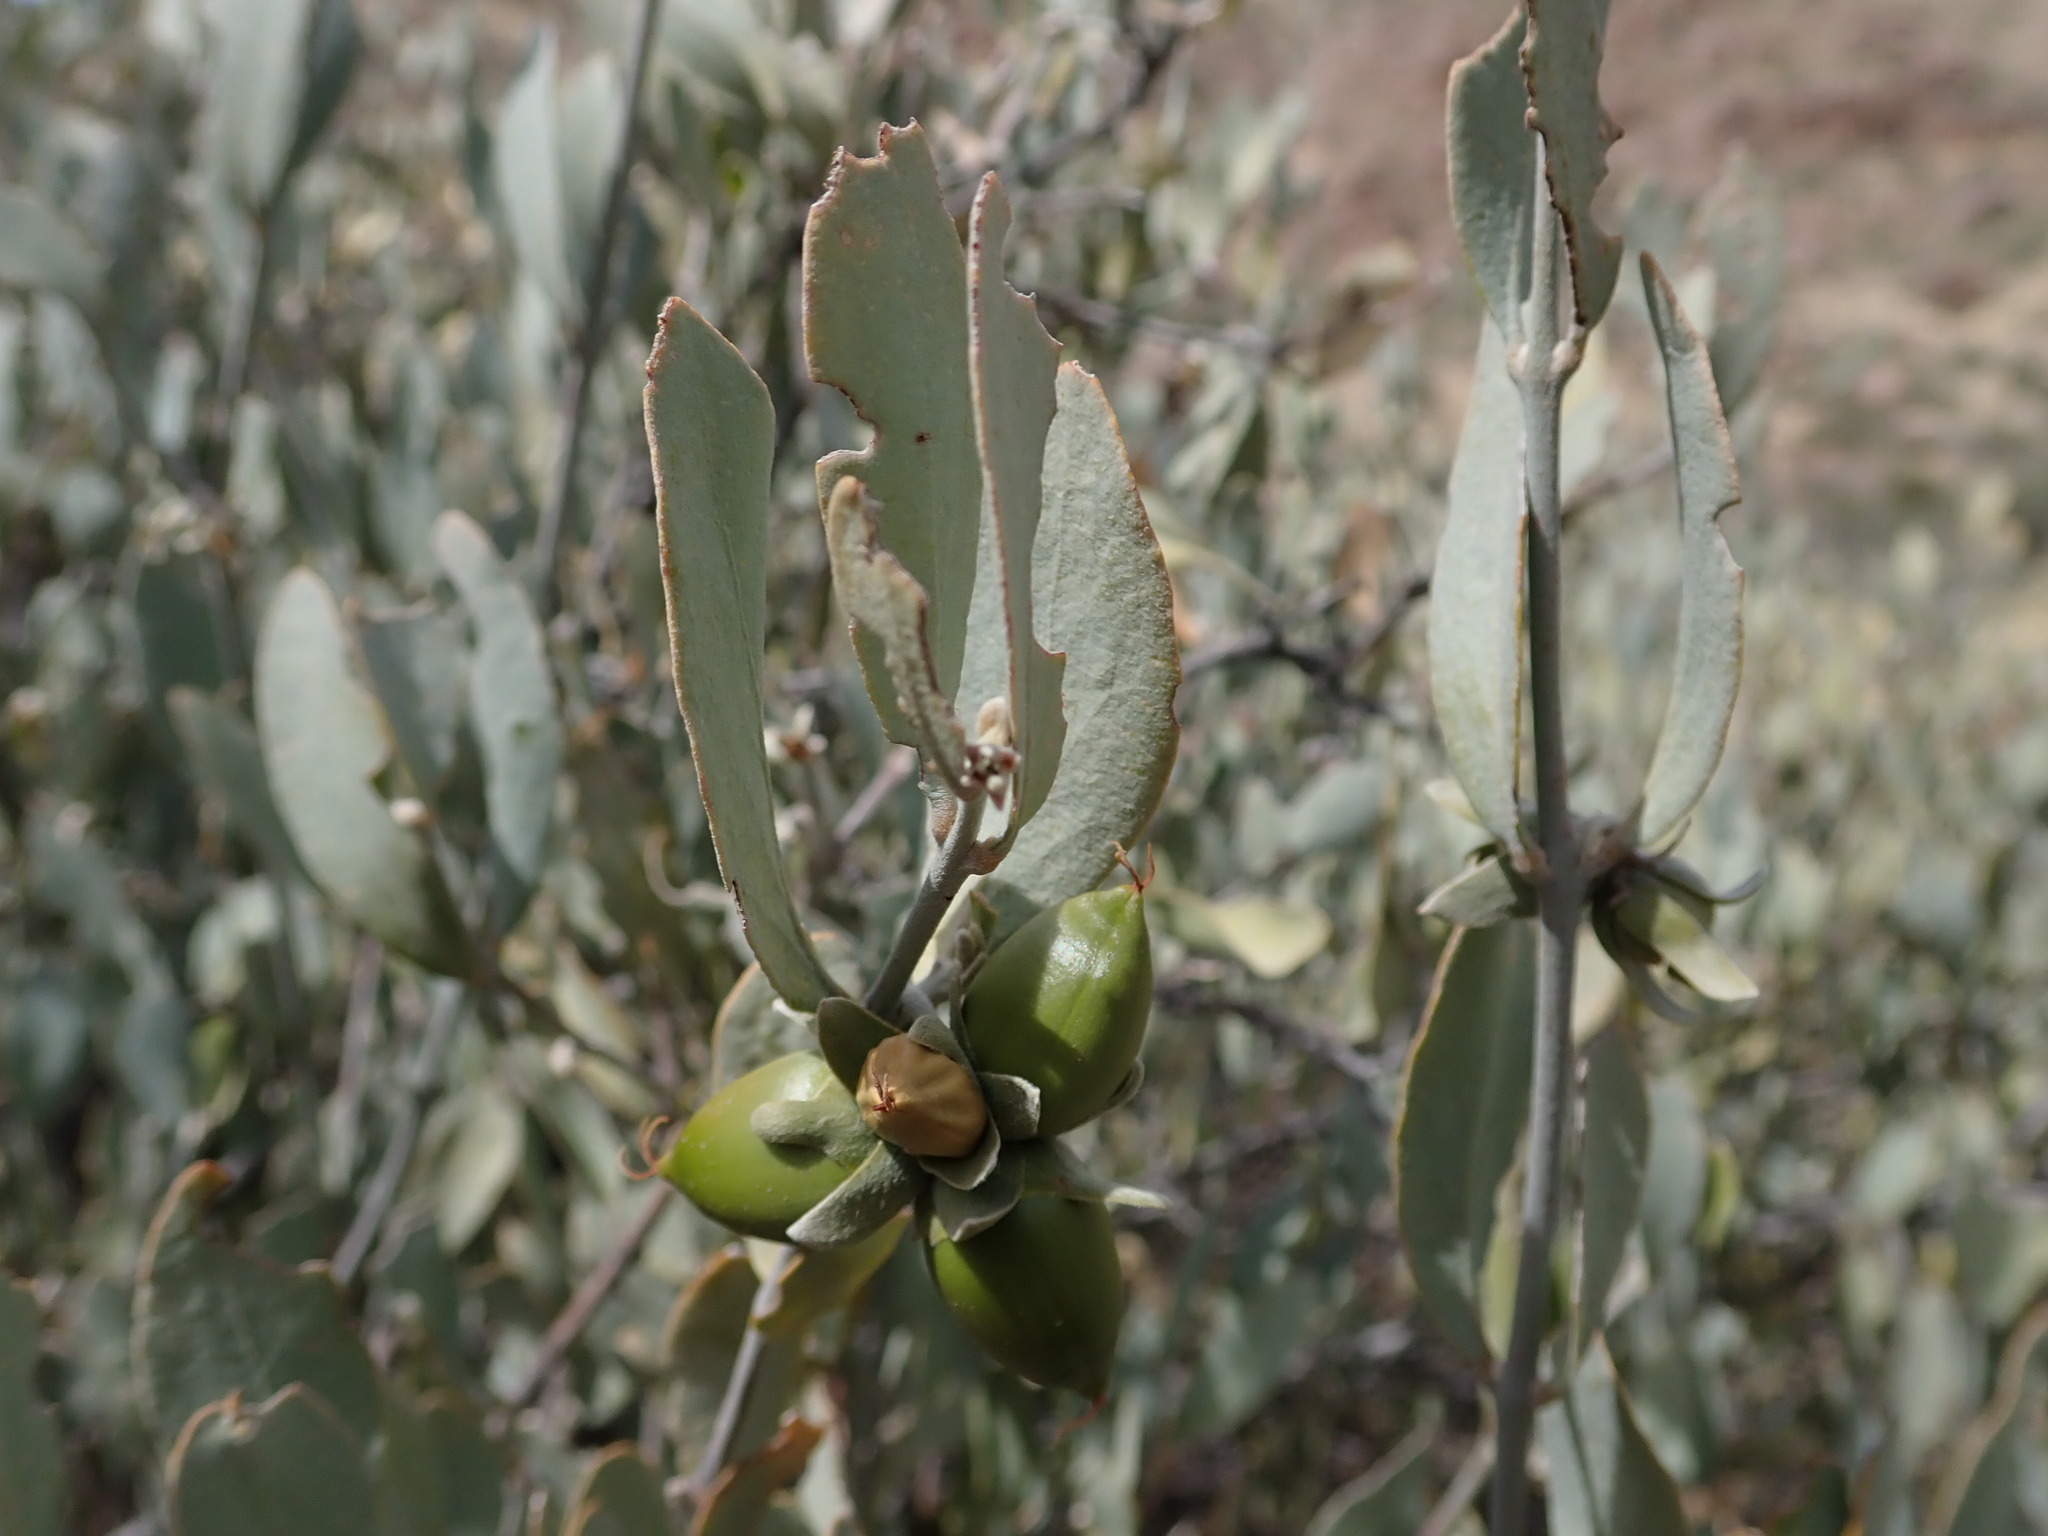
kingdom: Plantae
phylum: Tracheophyta
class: Magnoliopsida
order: Caryophyllales
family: Simmondsiaceae
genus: Simmondsia
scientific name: Simmondsia chinensis
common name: Jojoba
